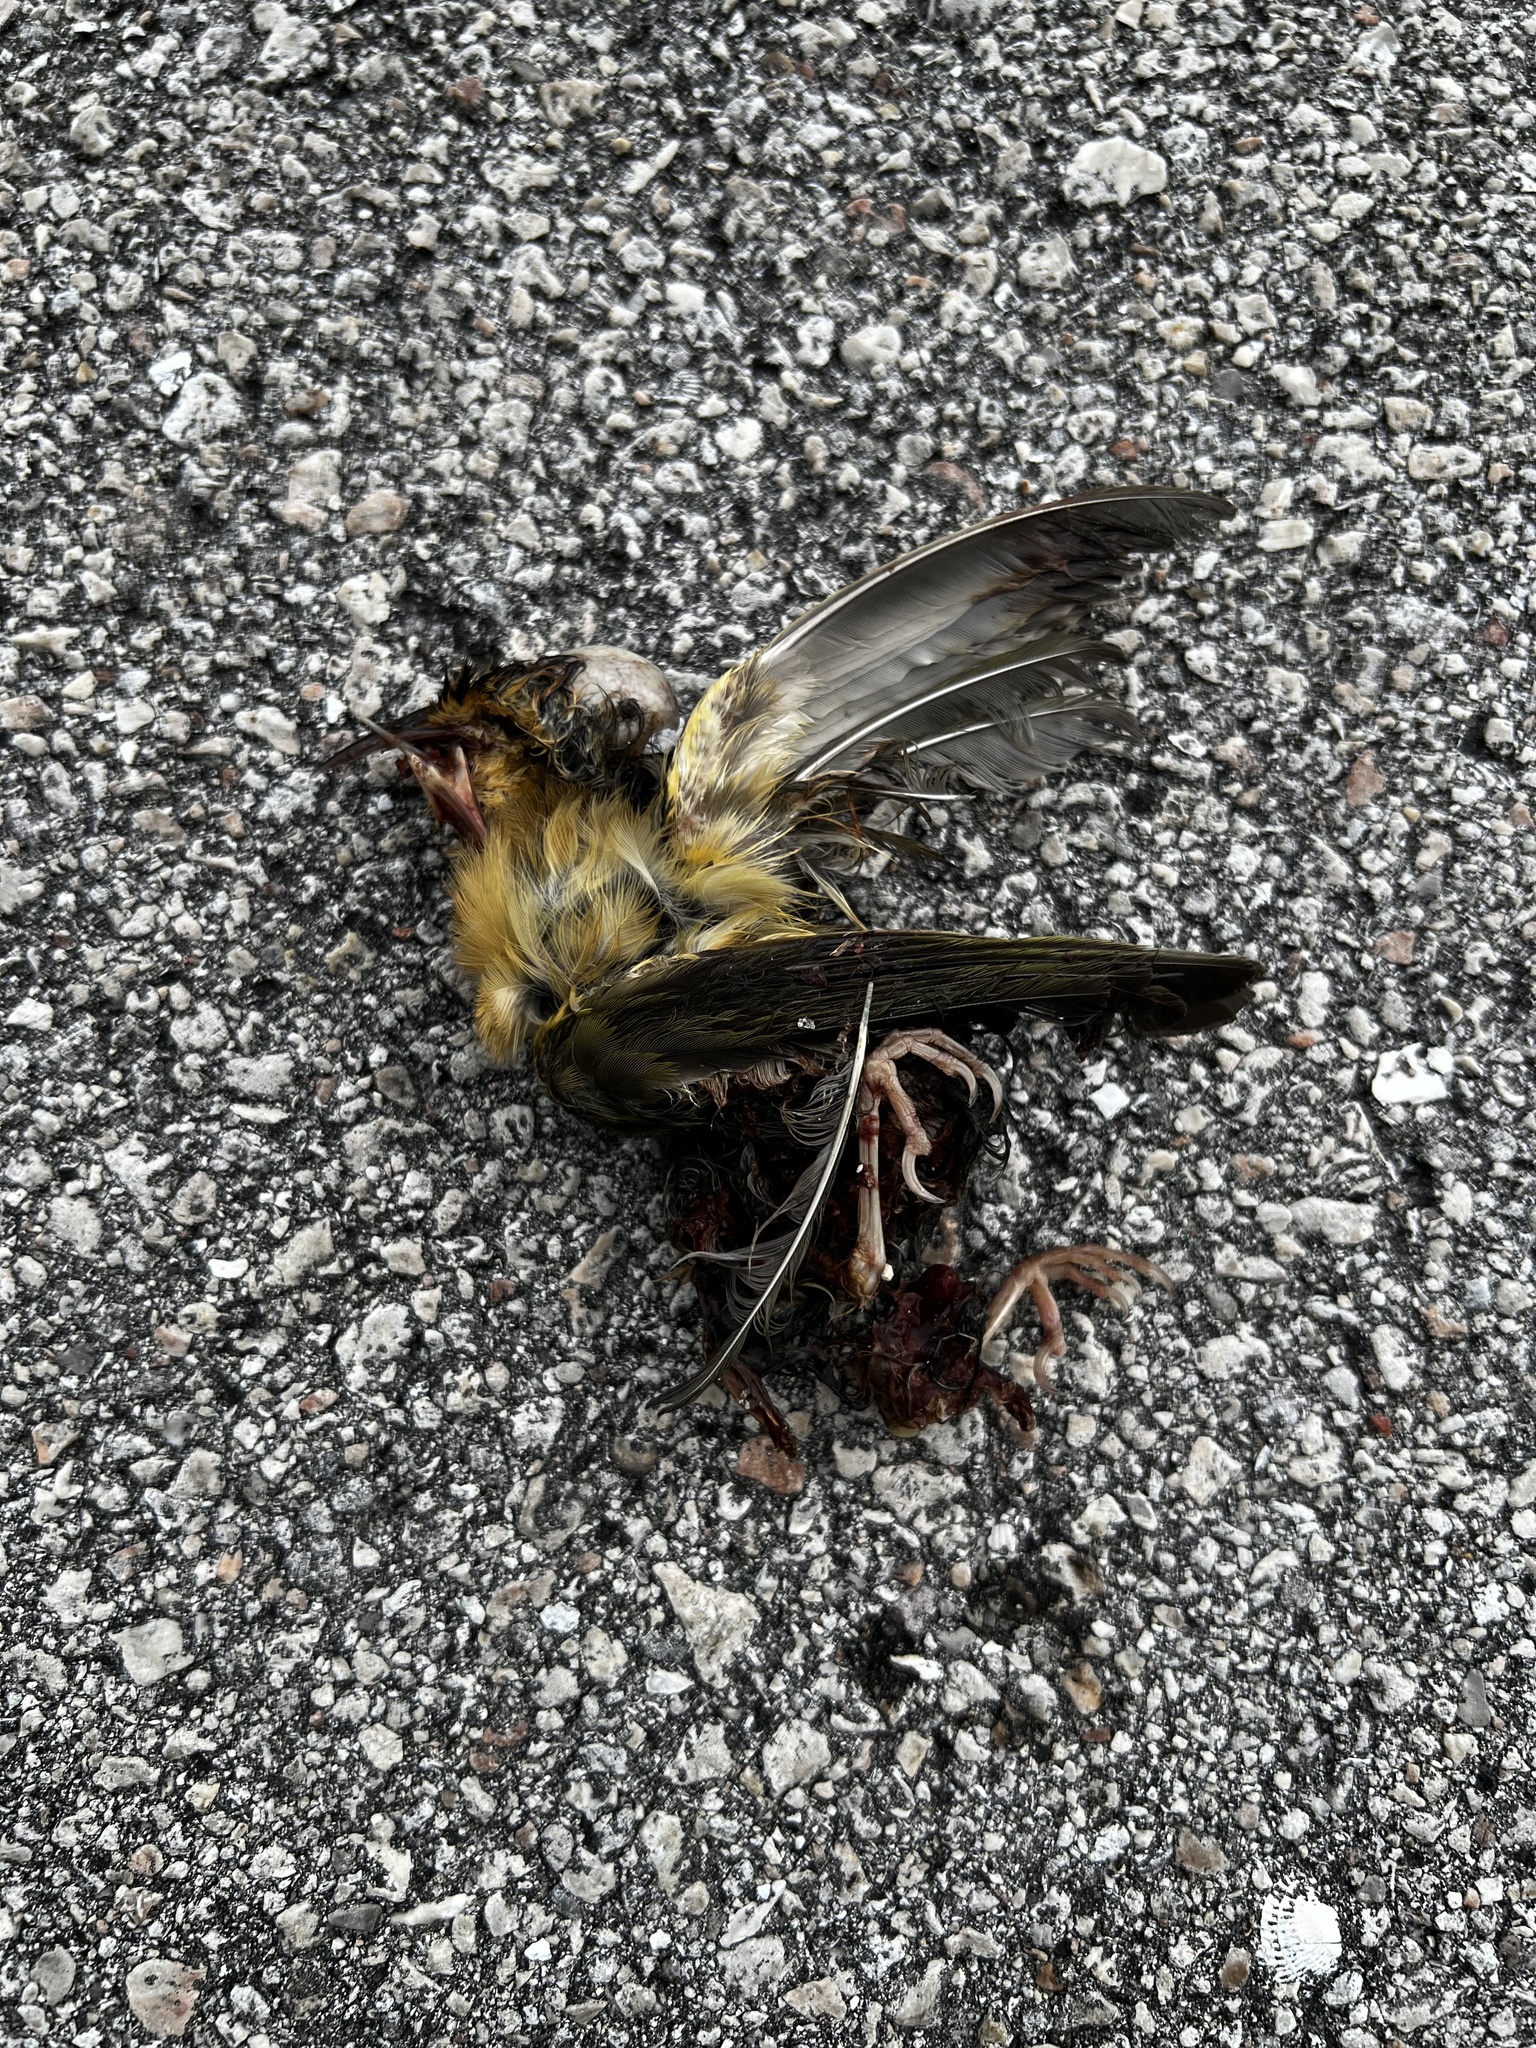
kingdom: Animalia
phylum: Chordata
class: Aves
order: Passeriformes
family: Troglodytidae
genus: Thryothorus
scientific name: Thryothorus ludovicianus
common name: Carolina wren
